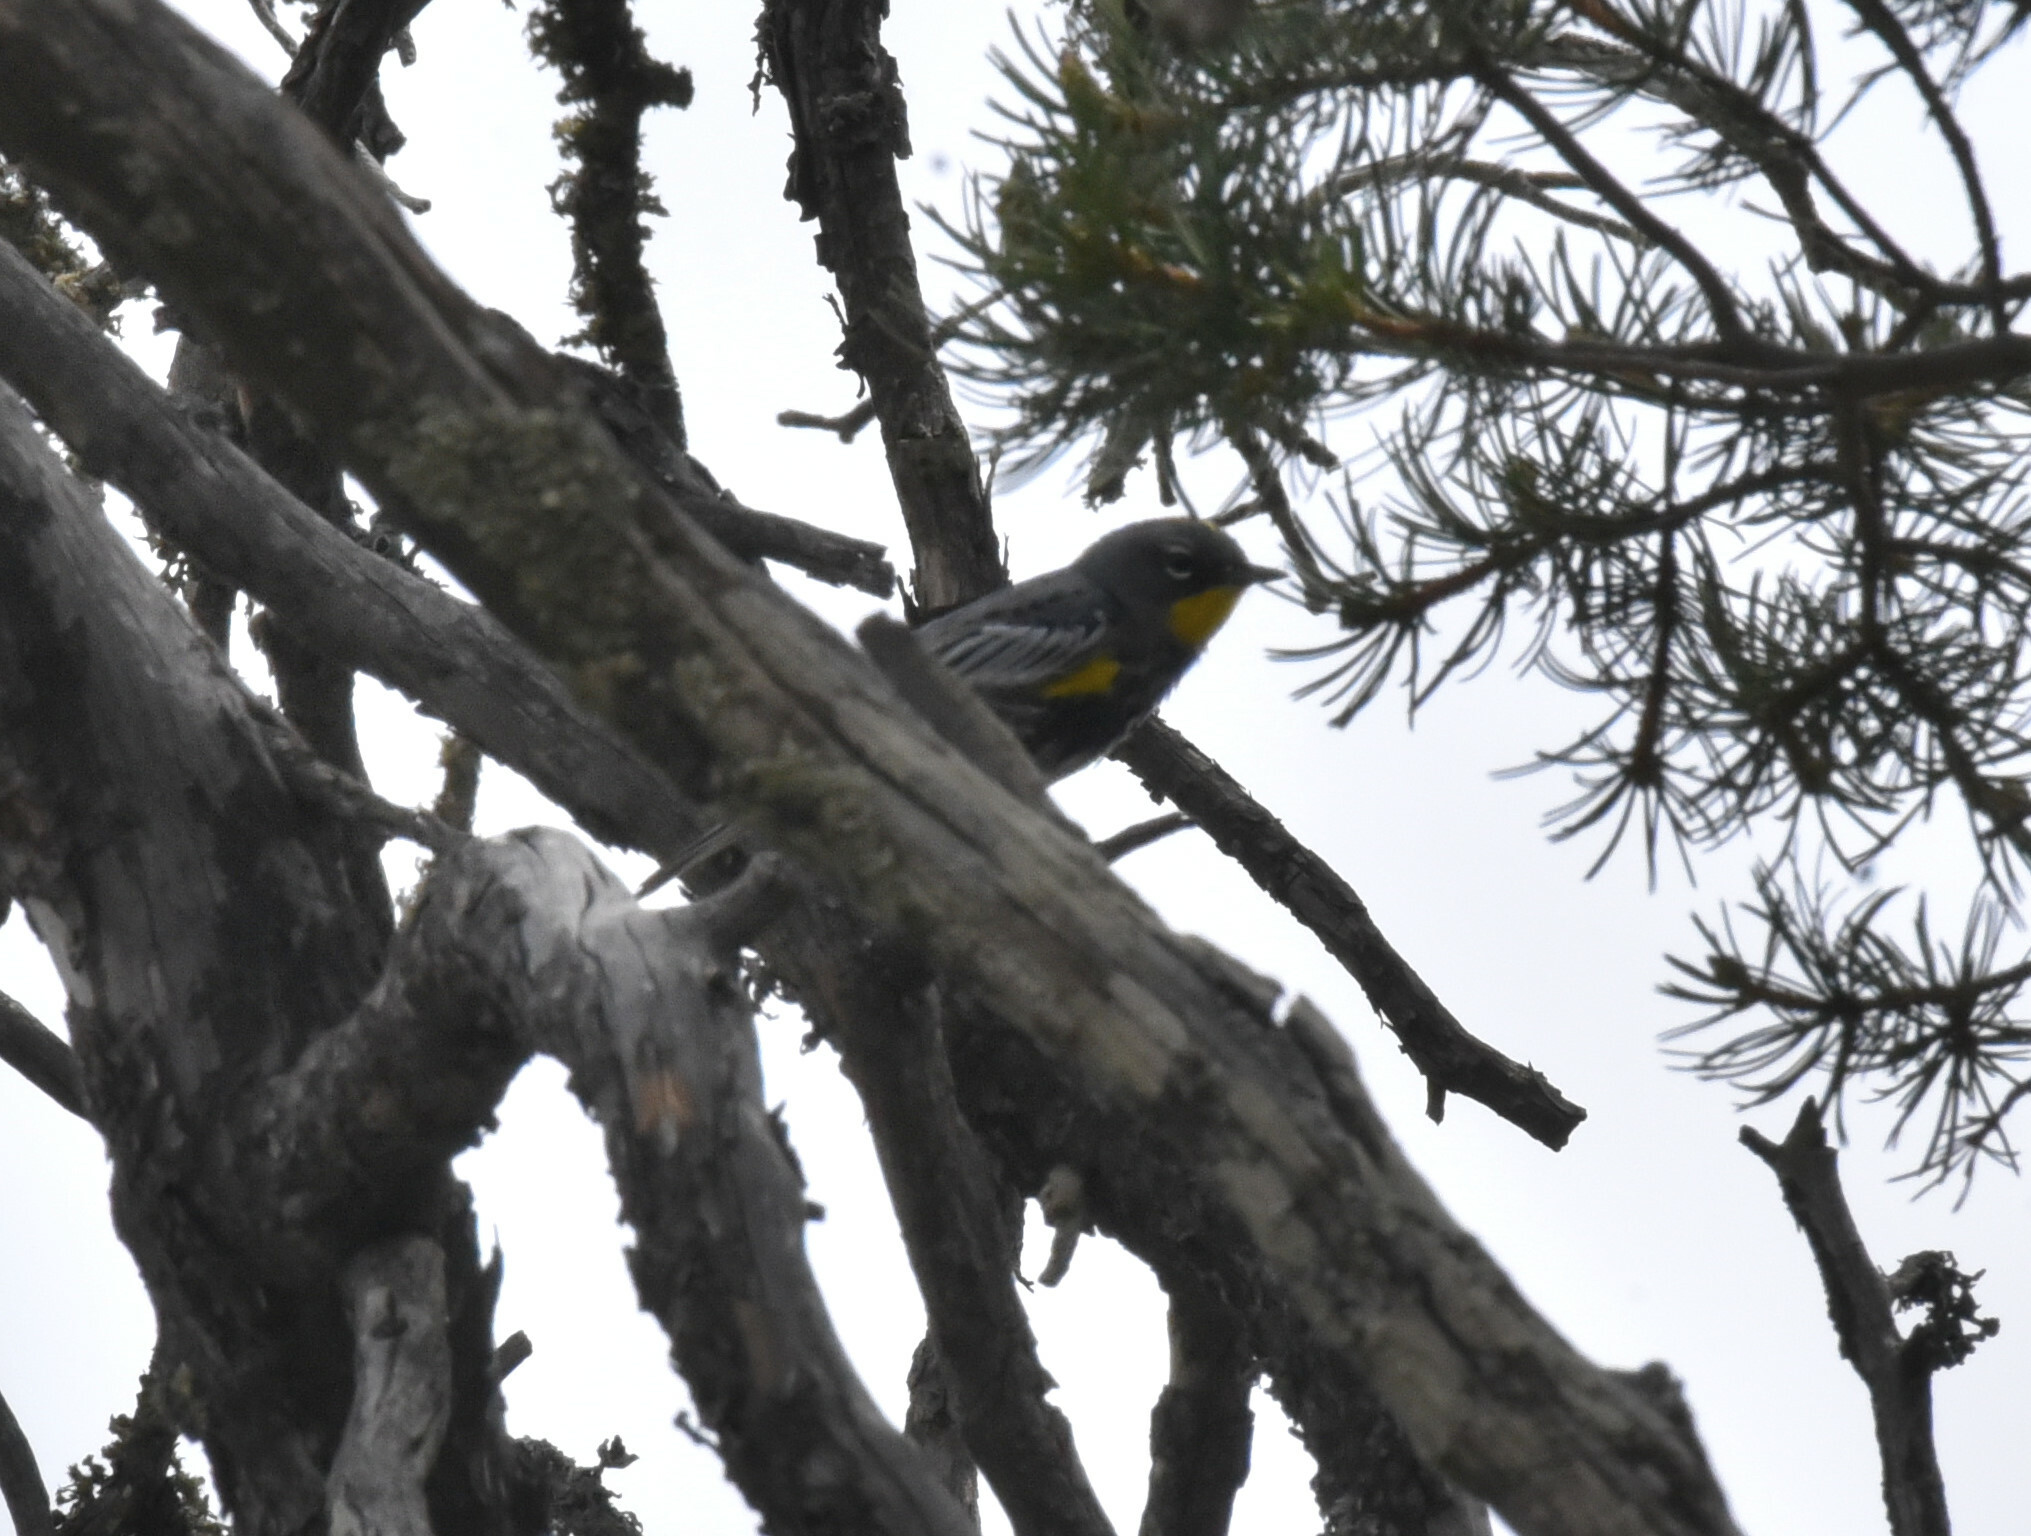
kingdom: Animalia
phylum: Chordata
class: Aves
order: Passeriformes
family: Parulidae
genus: Setophaga
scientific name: Setophaga coronata
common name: Myrtle warbler
